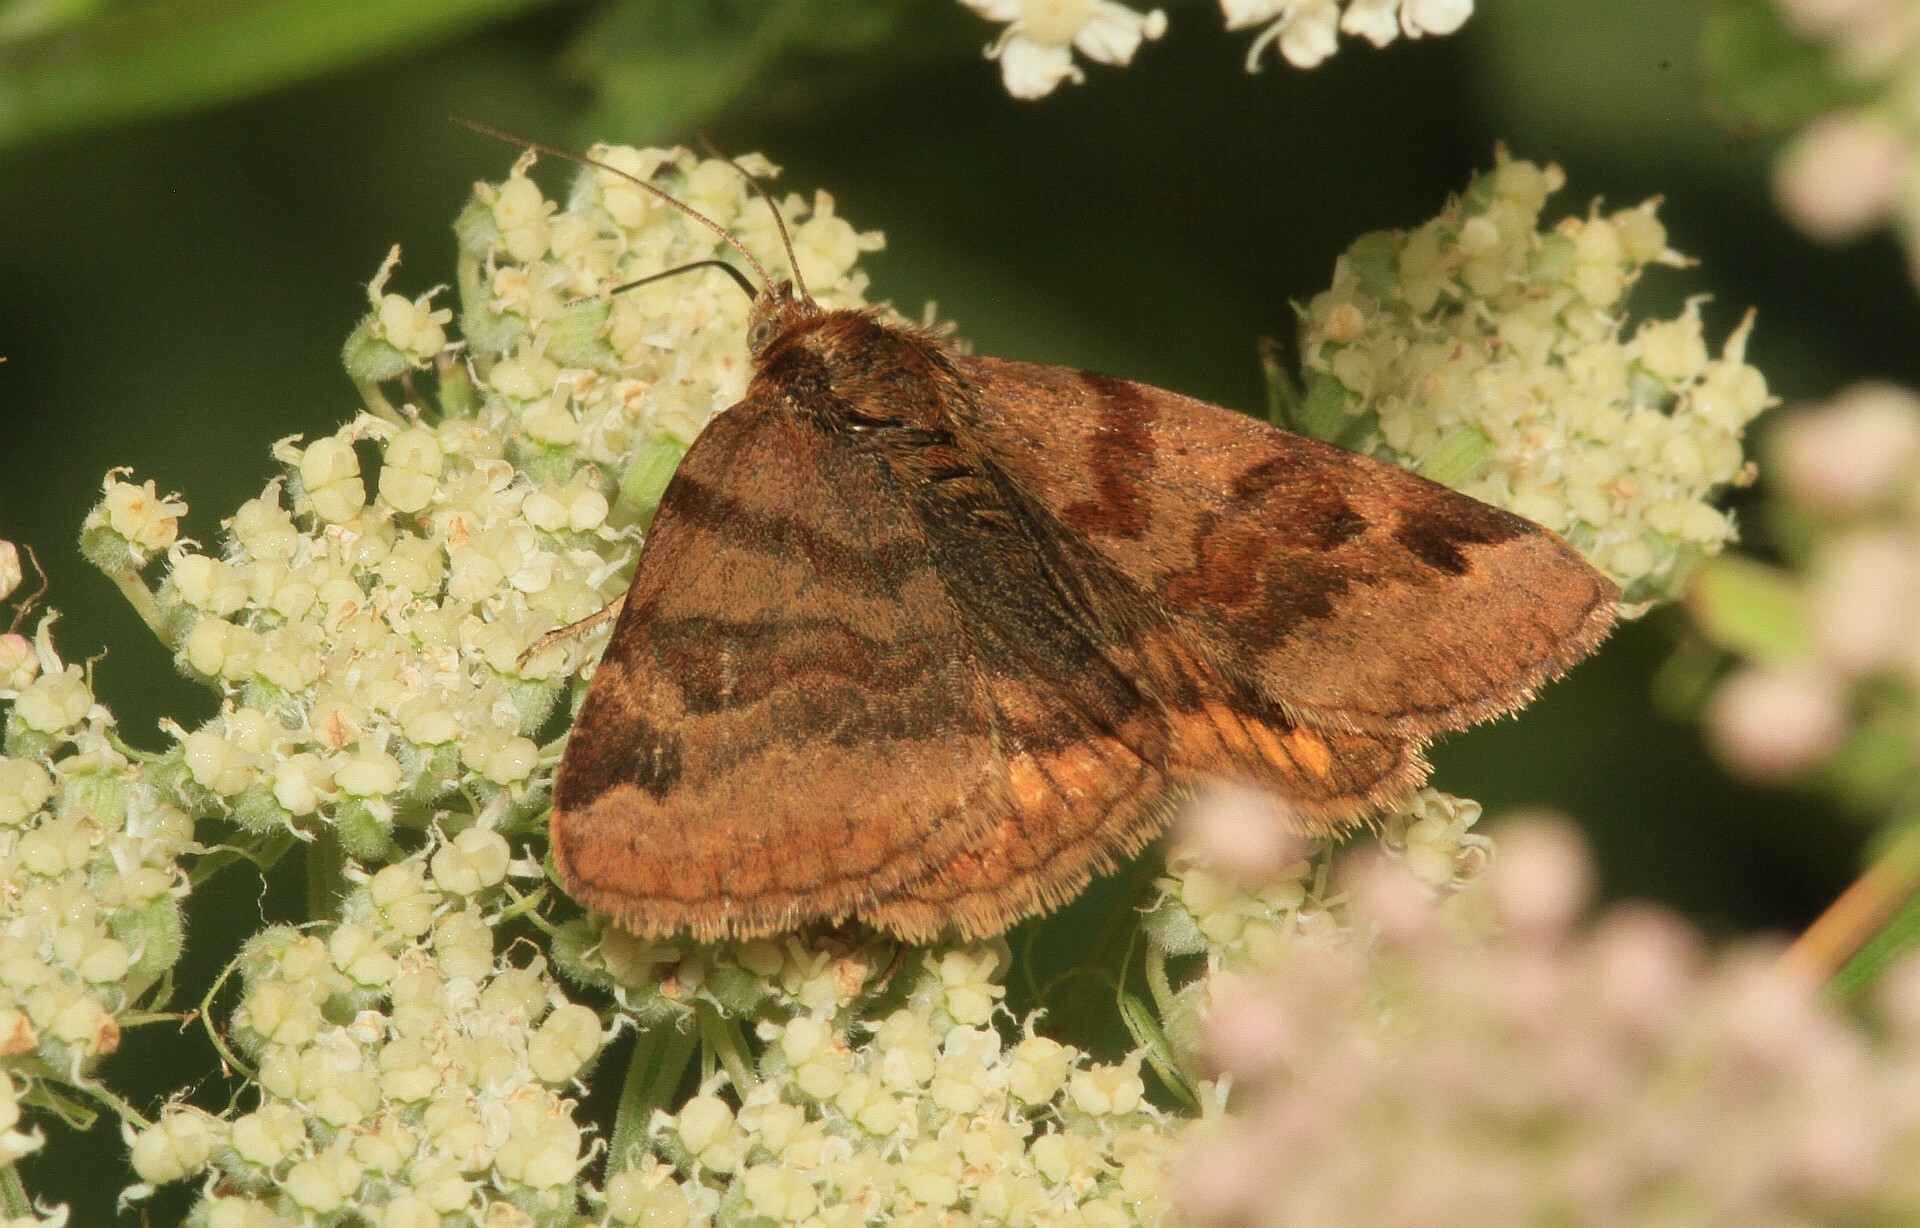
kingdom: Animalia
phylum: Arthropoda
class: Insecta
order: Lepidoptera
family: Erebidae
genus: Euclidia
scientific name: Euclidia glyphica
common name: Burnet companion
